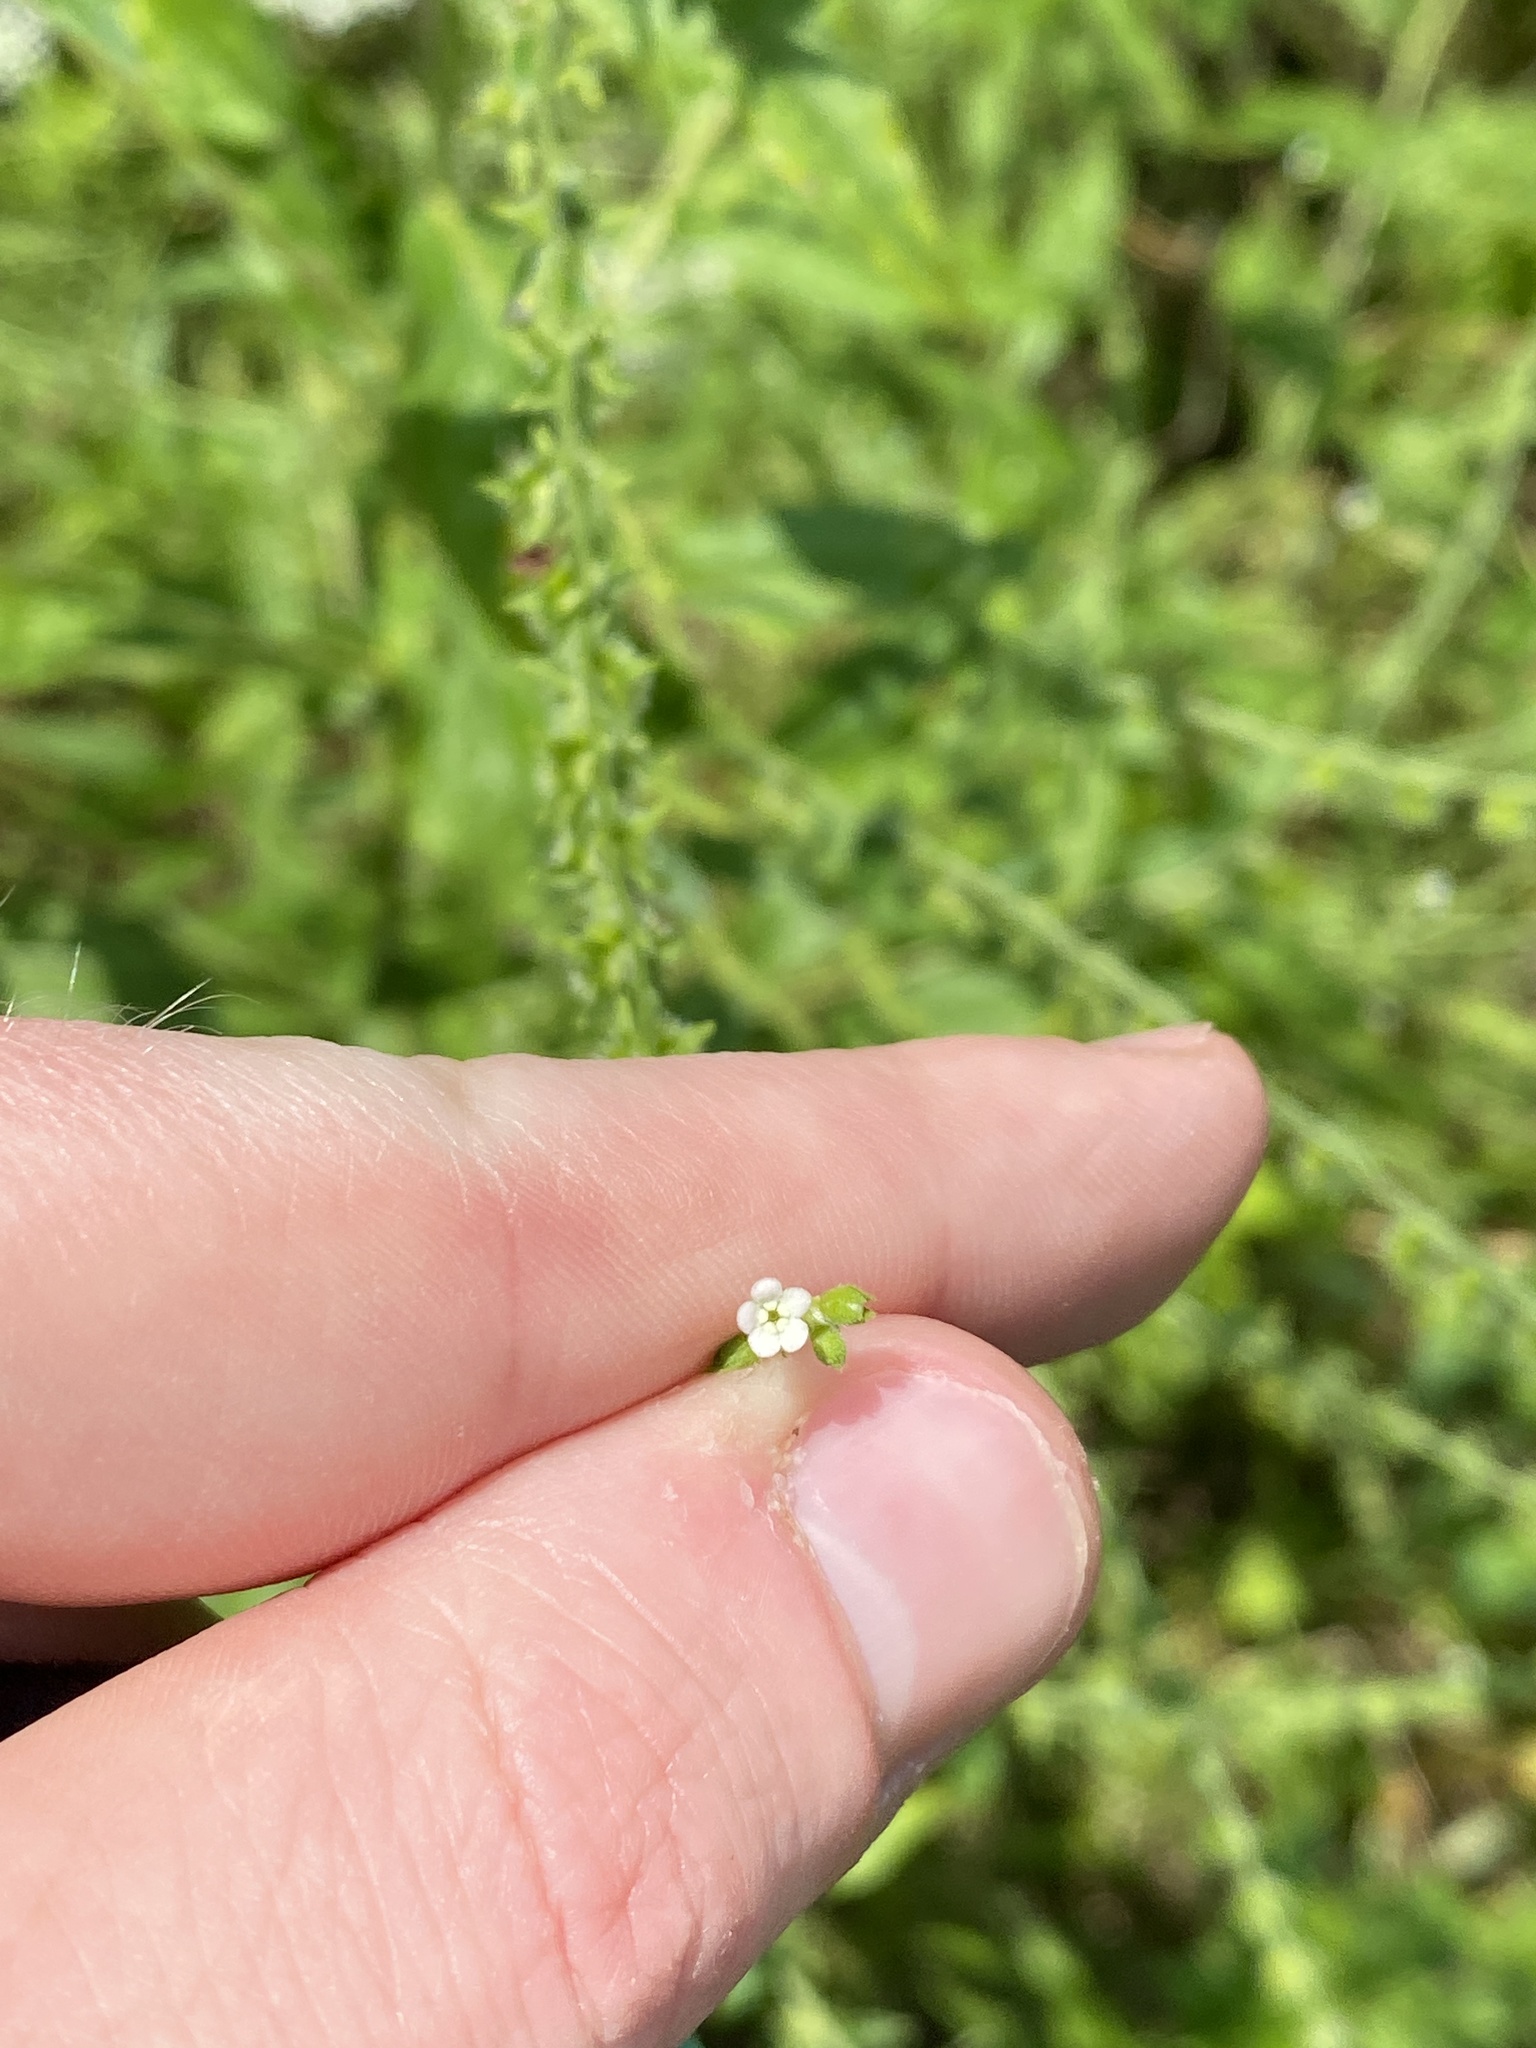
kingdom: Plantae
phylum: Tracheophyta
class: Magnoliopsida
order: Boraginales
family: Boraginaceae
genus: Hackelia
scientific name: Hackelia virginiana
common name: Beggar's-lice
